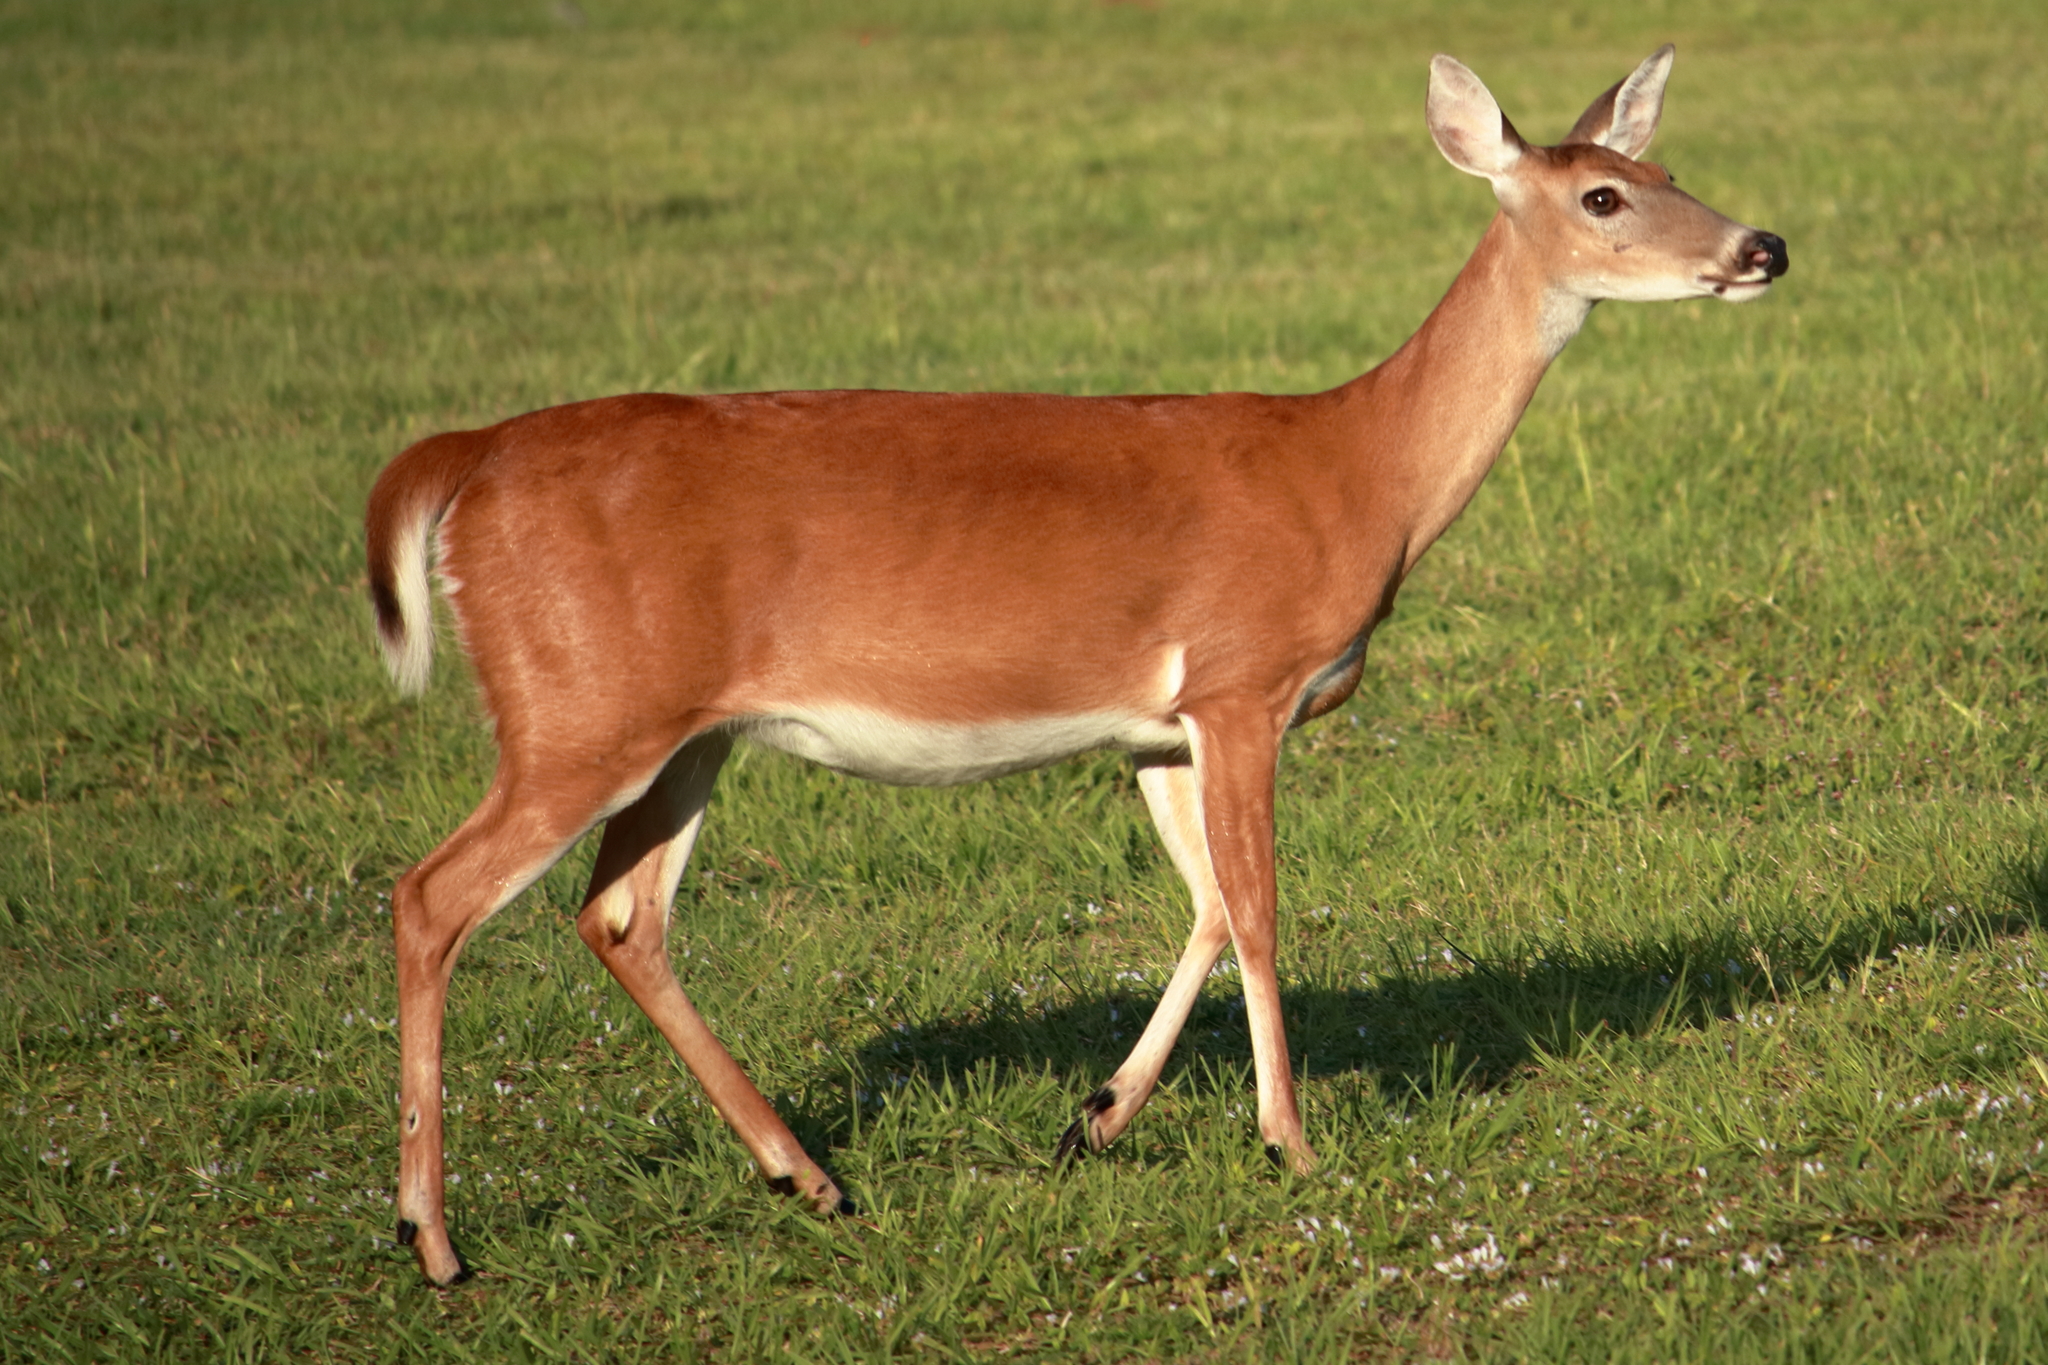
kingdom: Animalia
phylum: Chordata
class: Mammalia
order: Artiodactyla
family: Cervidae
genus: Odocoileus
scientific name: Odocoileus virginianus
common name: White-tailed deer
